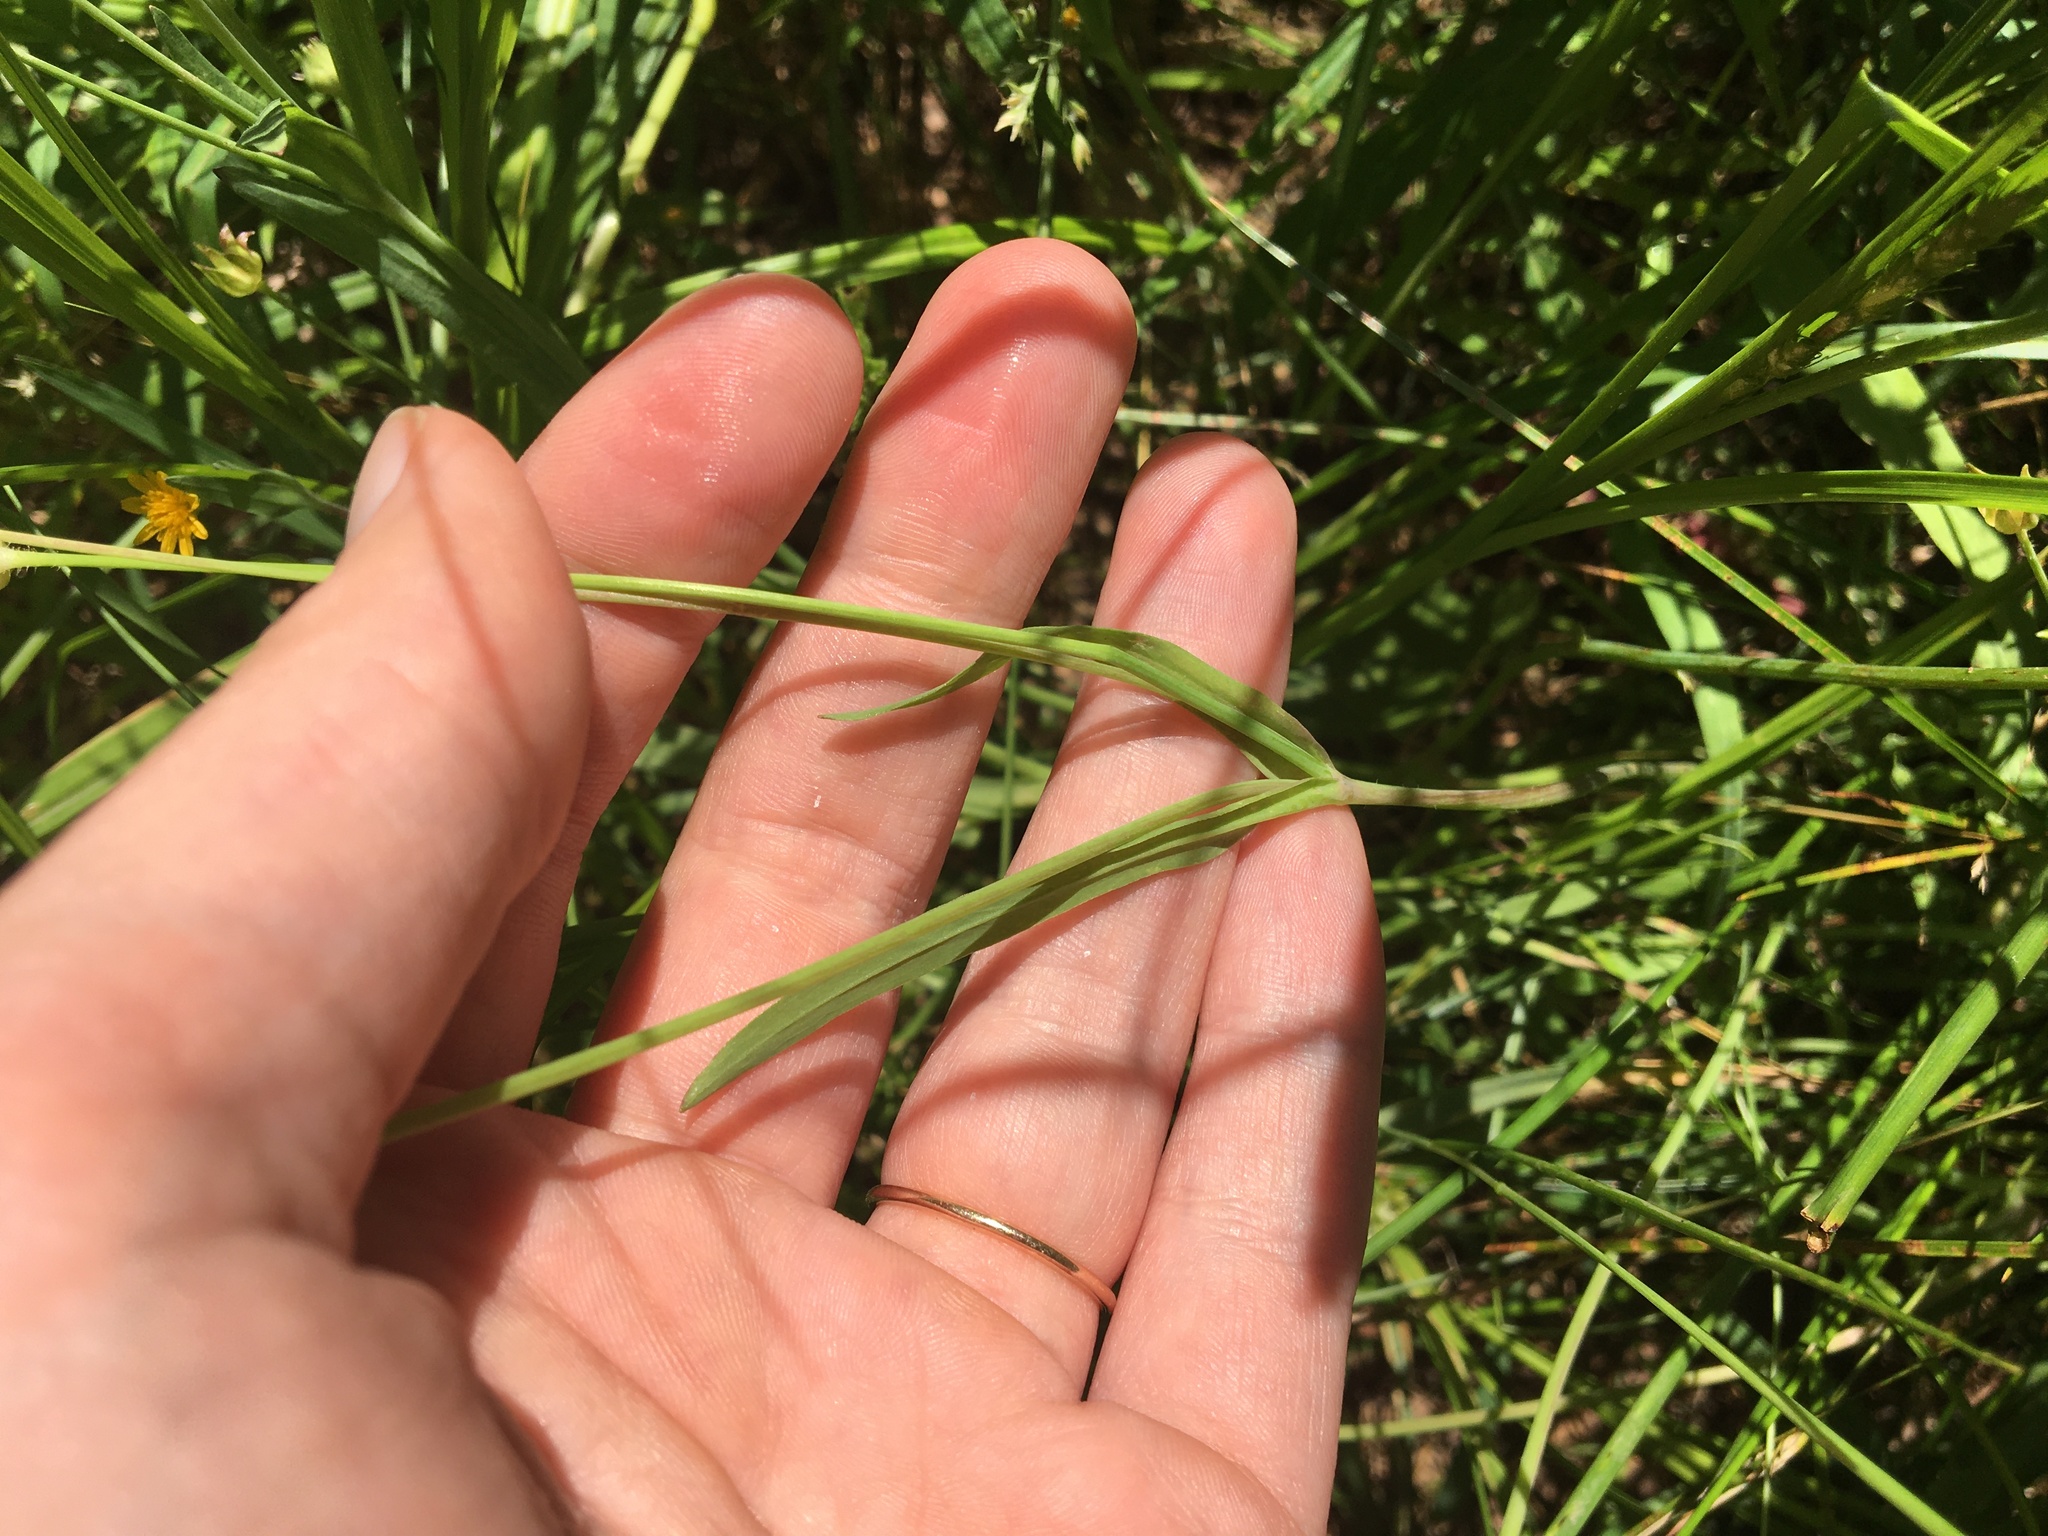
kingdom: Plantae
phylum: Tracheophyta
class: Magnoliopsida
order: Asterales
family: Asteraceae
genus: Krigia
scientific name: Krigia cespitosa
